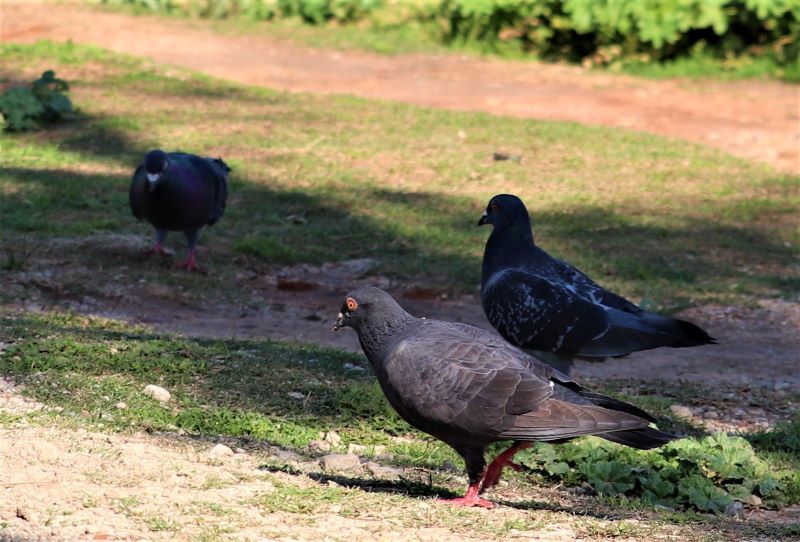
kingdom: Animalia
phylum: Chordata
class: Aves
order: Columbiformes
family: Columbidae
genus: Columba
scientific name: Columba livia
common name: Rock pigeon
